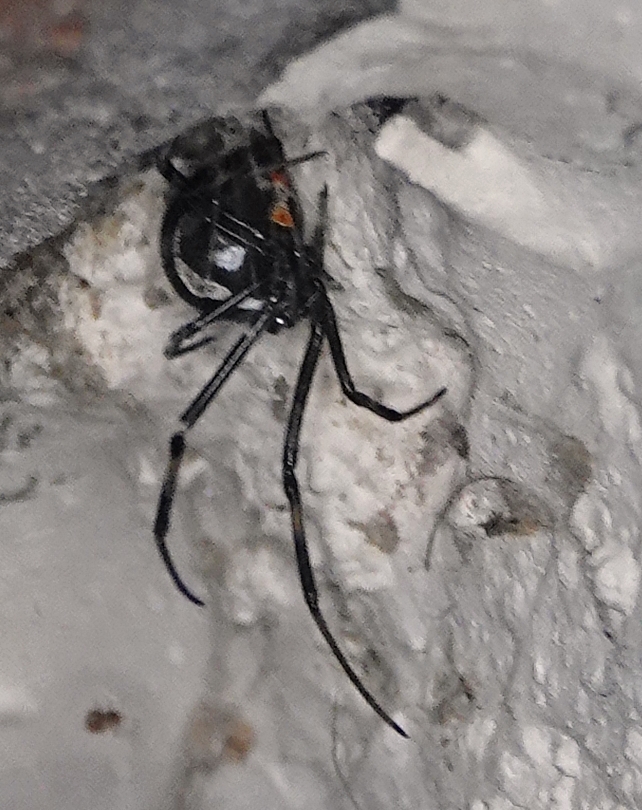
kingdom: Animalia
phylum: Arthropoda
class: Arachnida
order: Araneae
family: Theridiidae
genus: Latrodectus
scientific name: Latrodectus hesperus
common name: Western black widow
